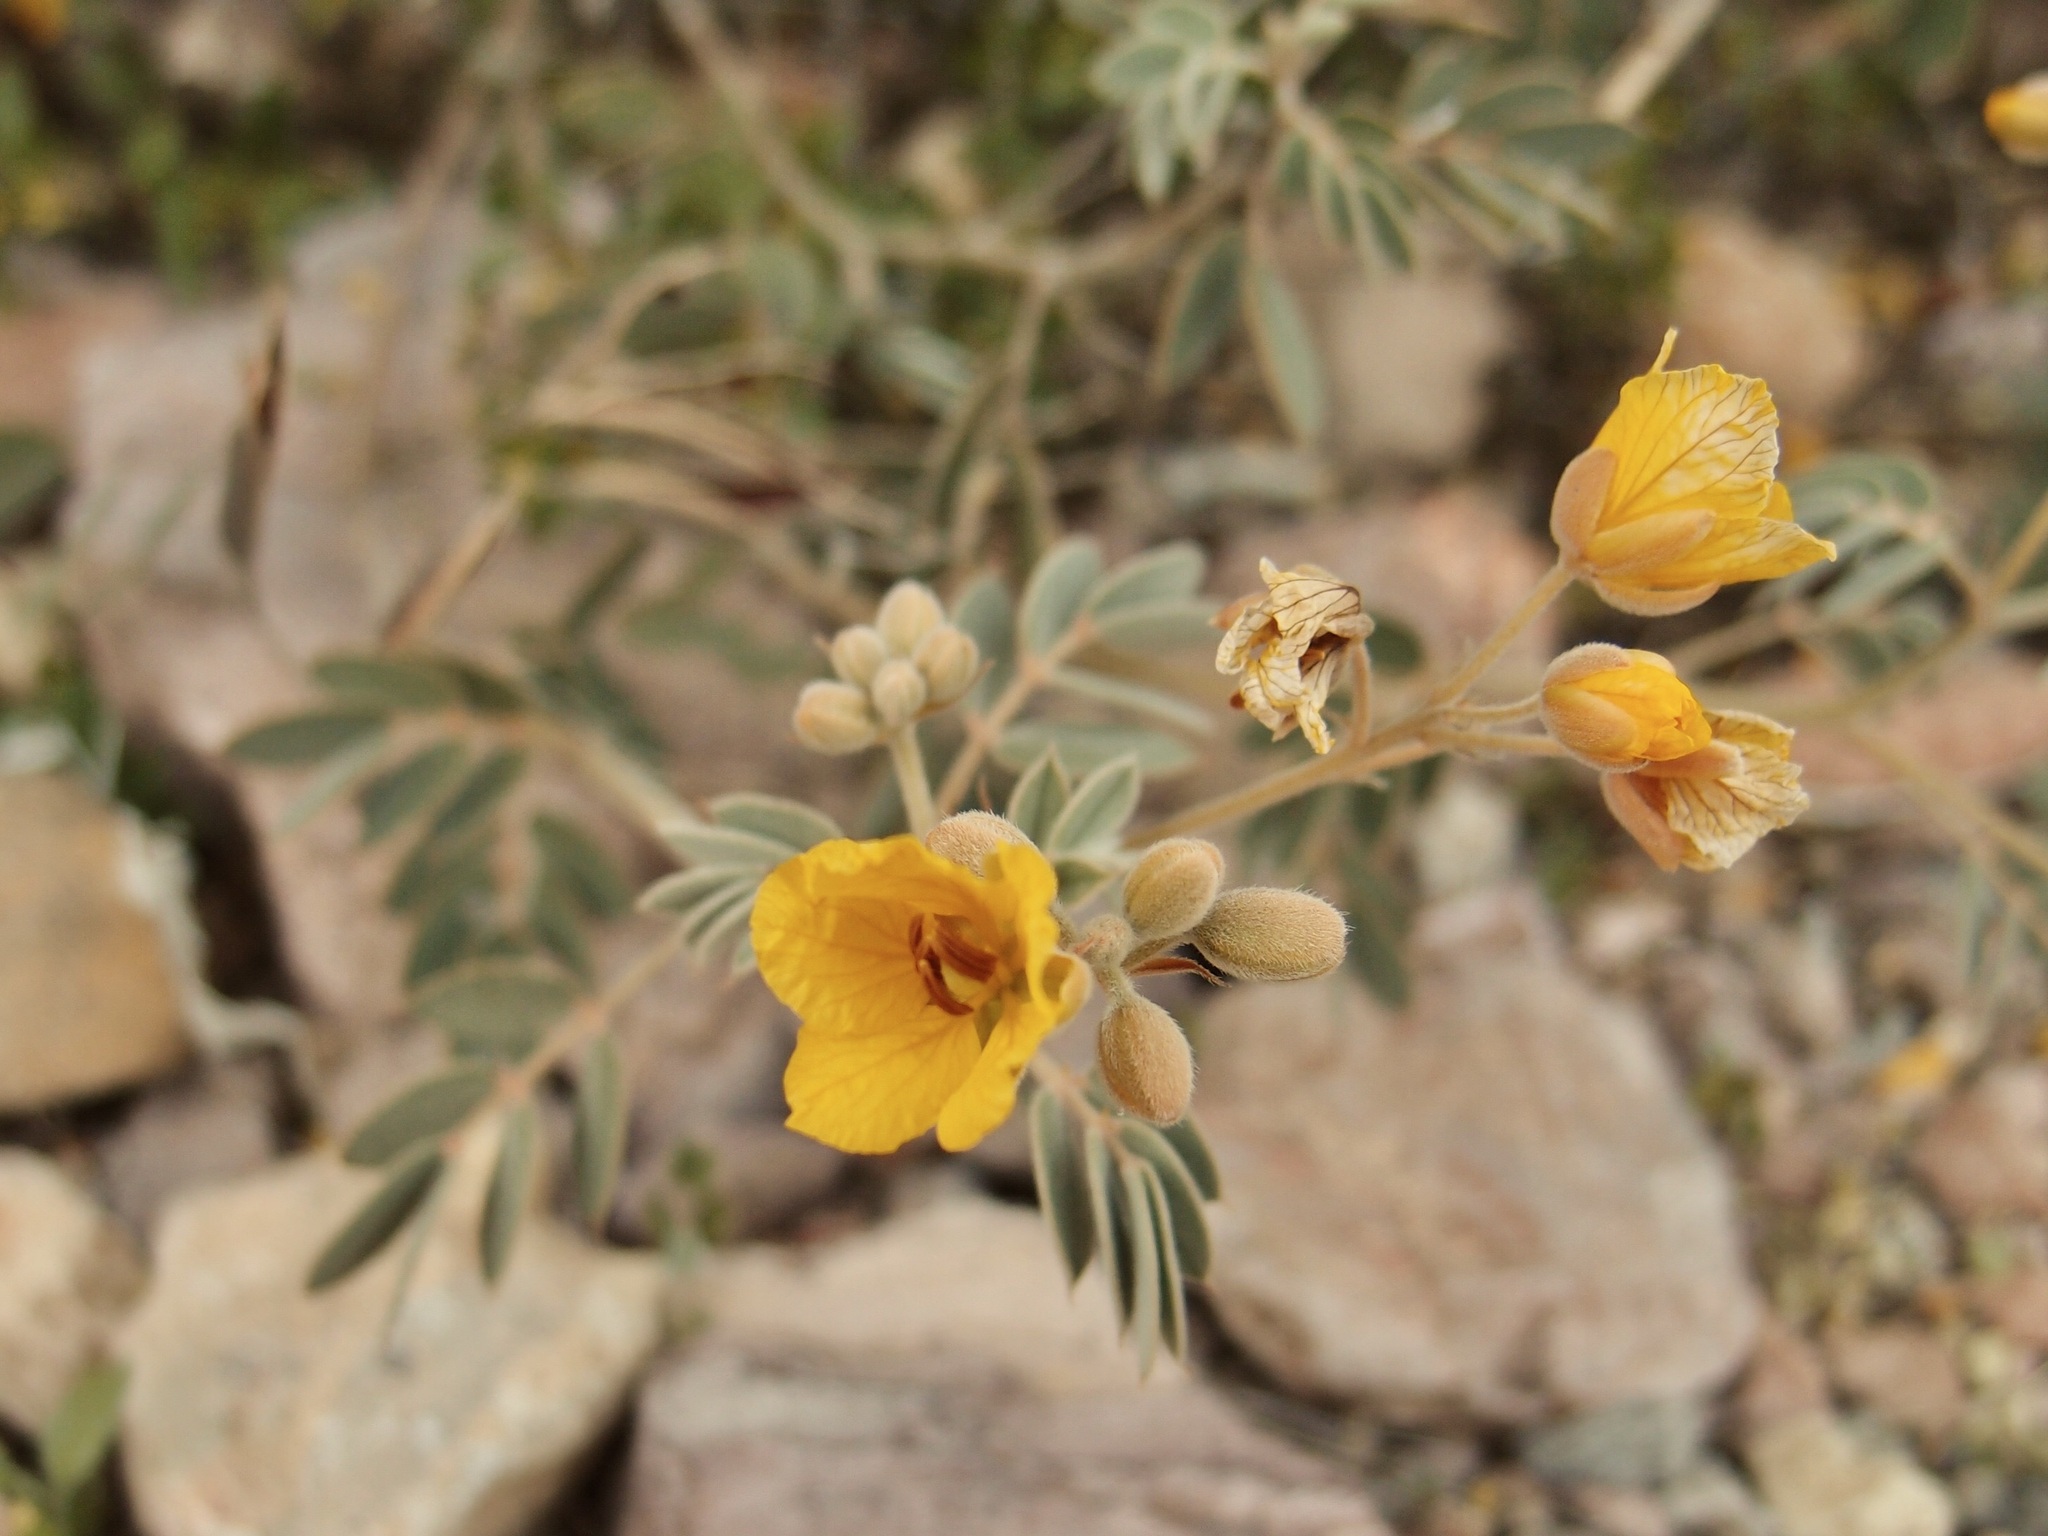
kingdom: Plantae
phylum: Tracheophyta
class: Magnoliopsida
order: Fabales
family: Fabaceae
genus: Senna
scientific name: Senna covesii
